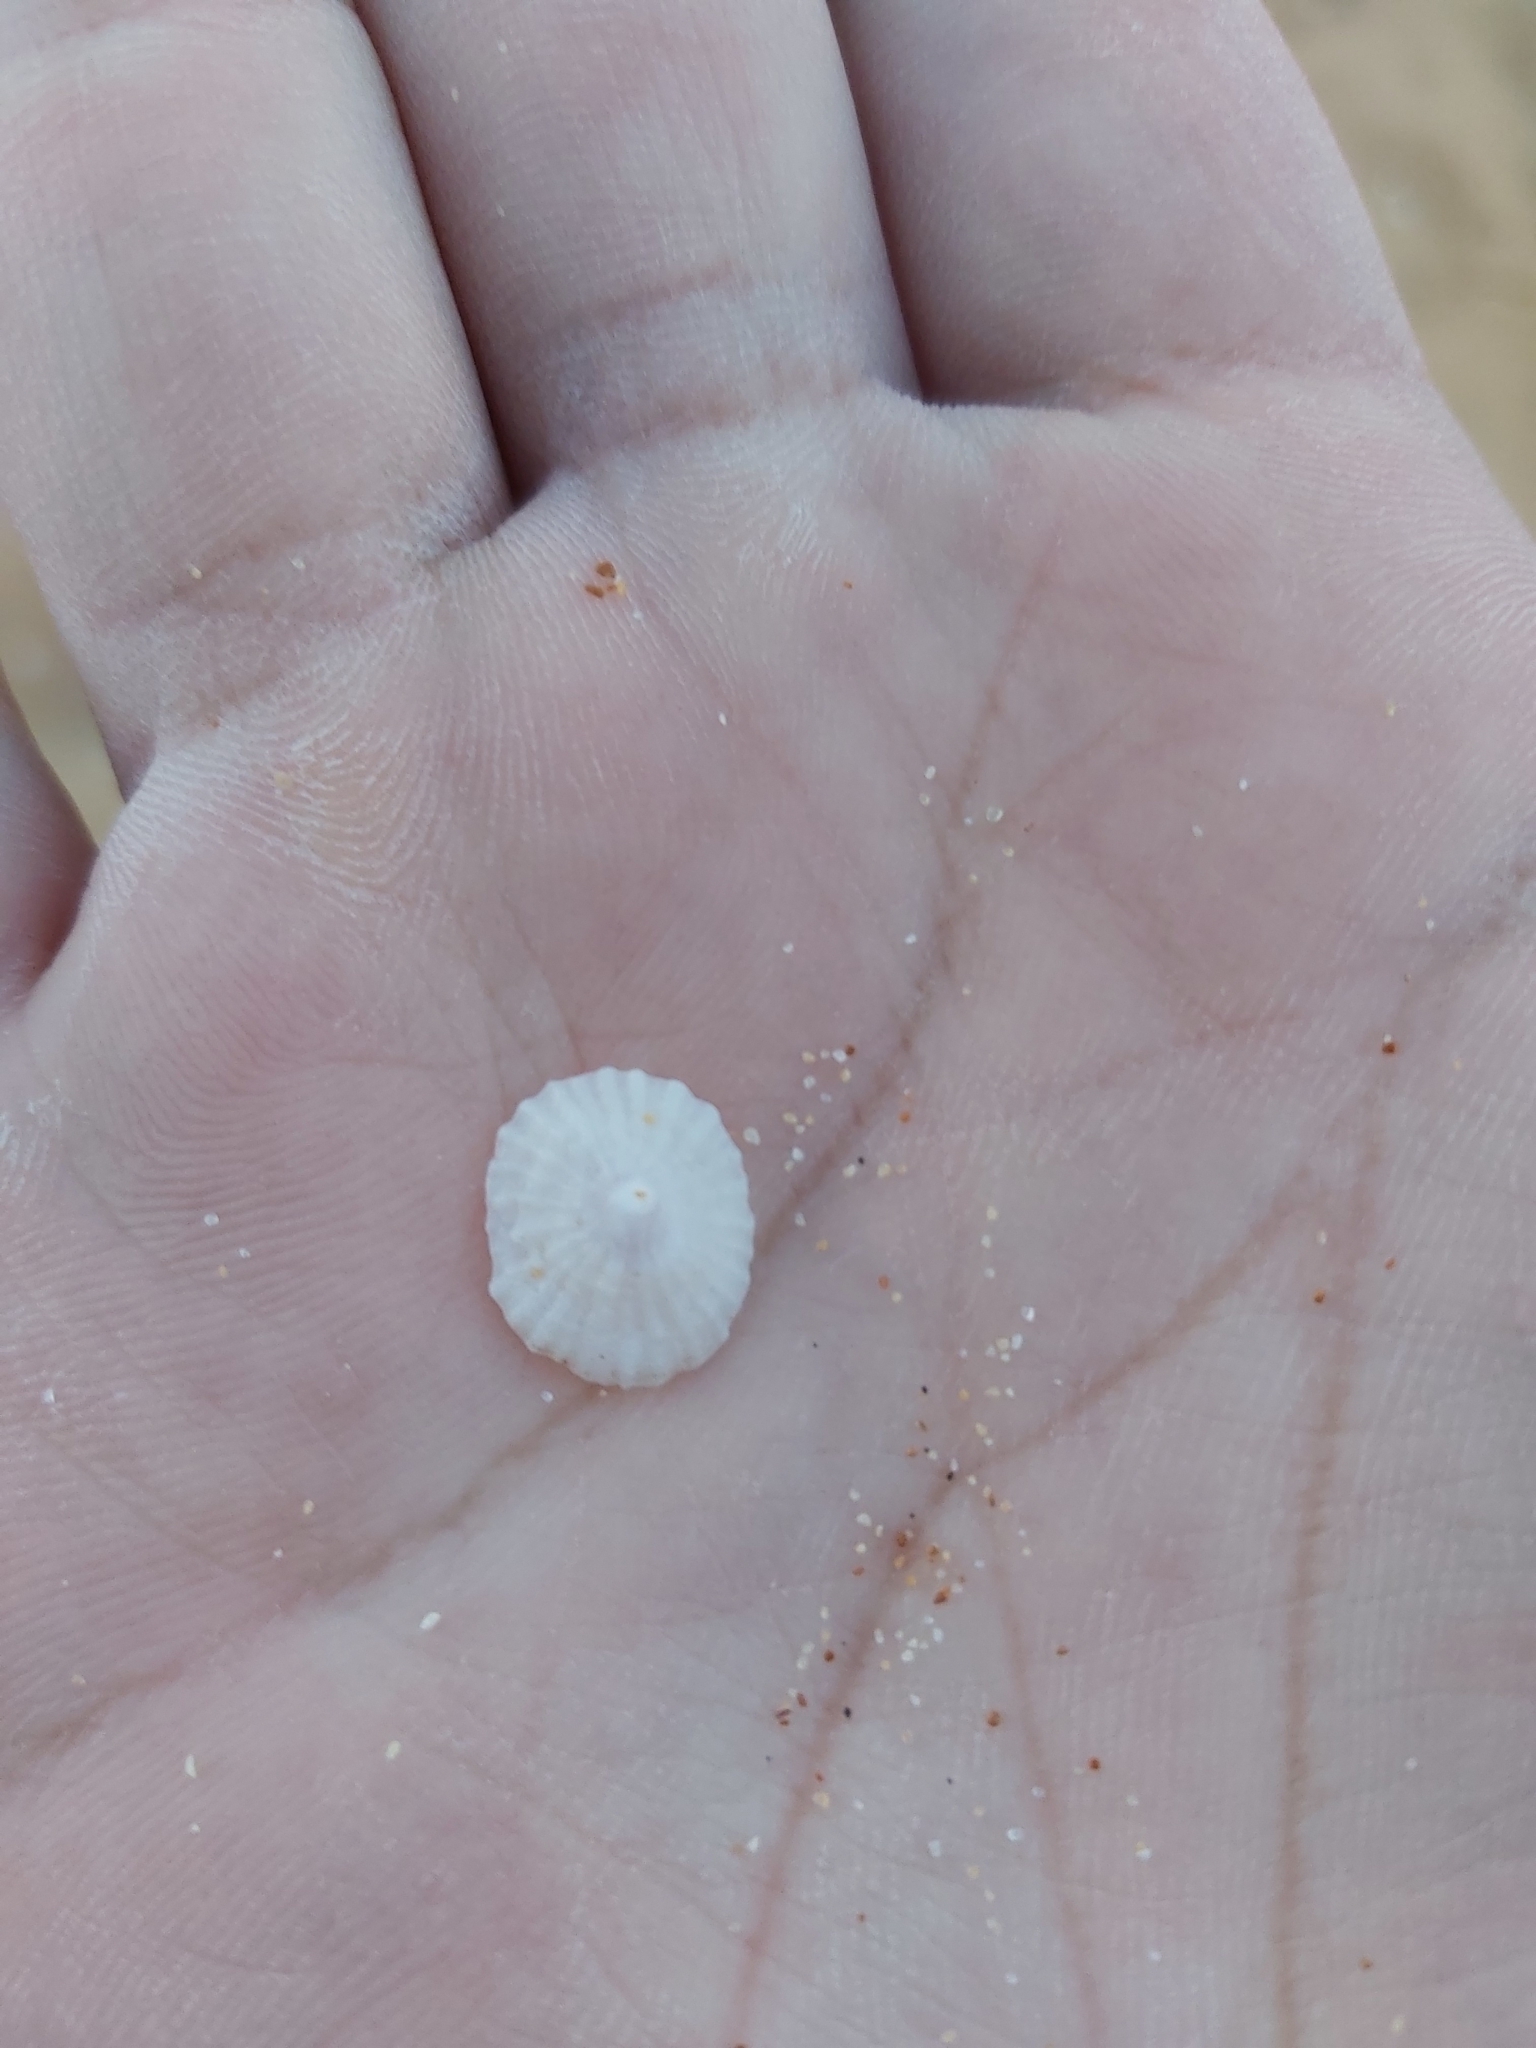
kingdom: Animalia
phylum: Mollusca
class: Gastropoda
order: Ellobiida
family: Trimusculidae
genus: Trimusculus
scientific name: Trimusculus conicus
